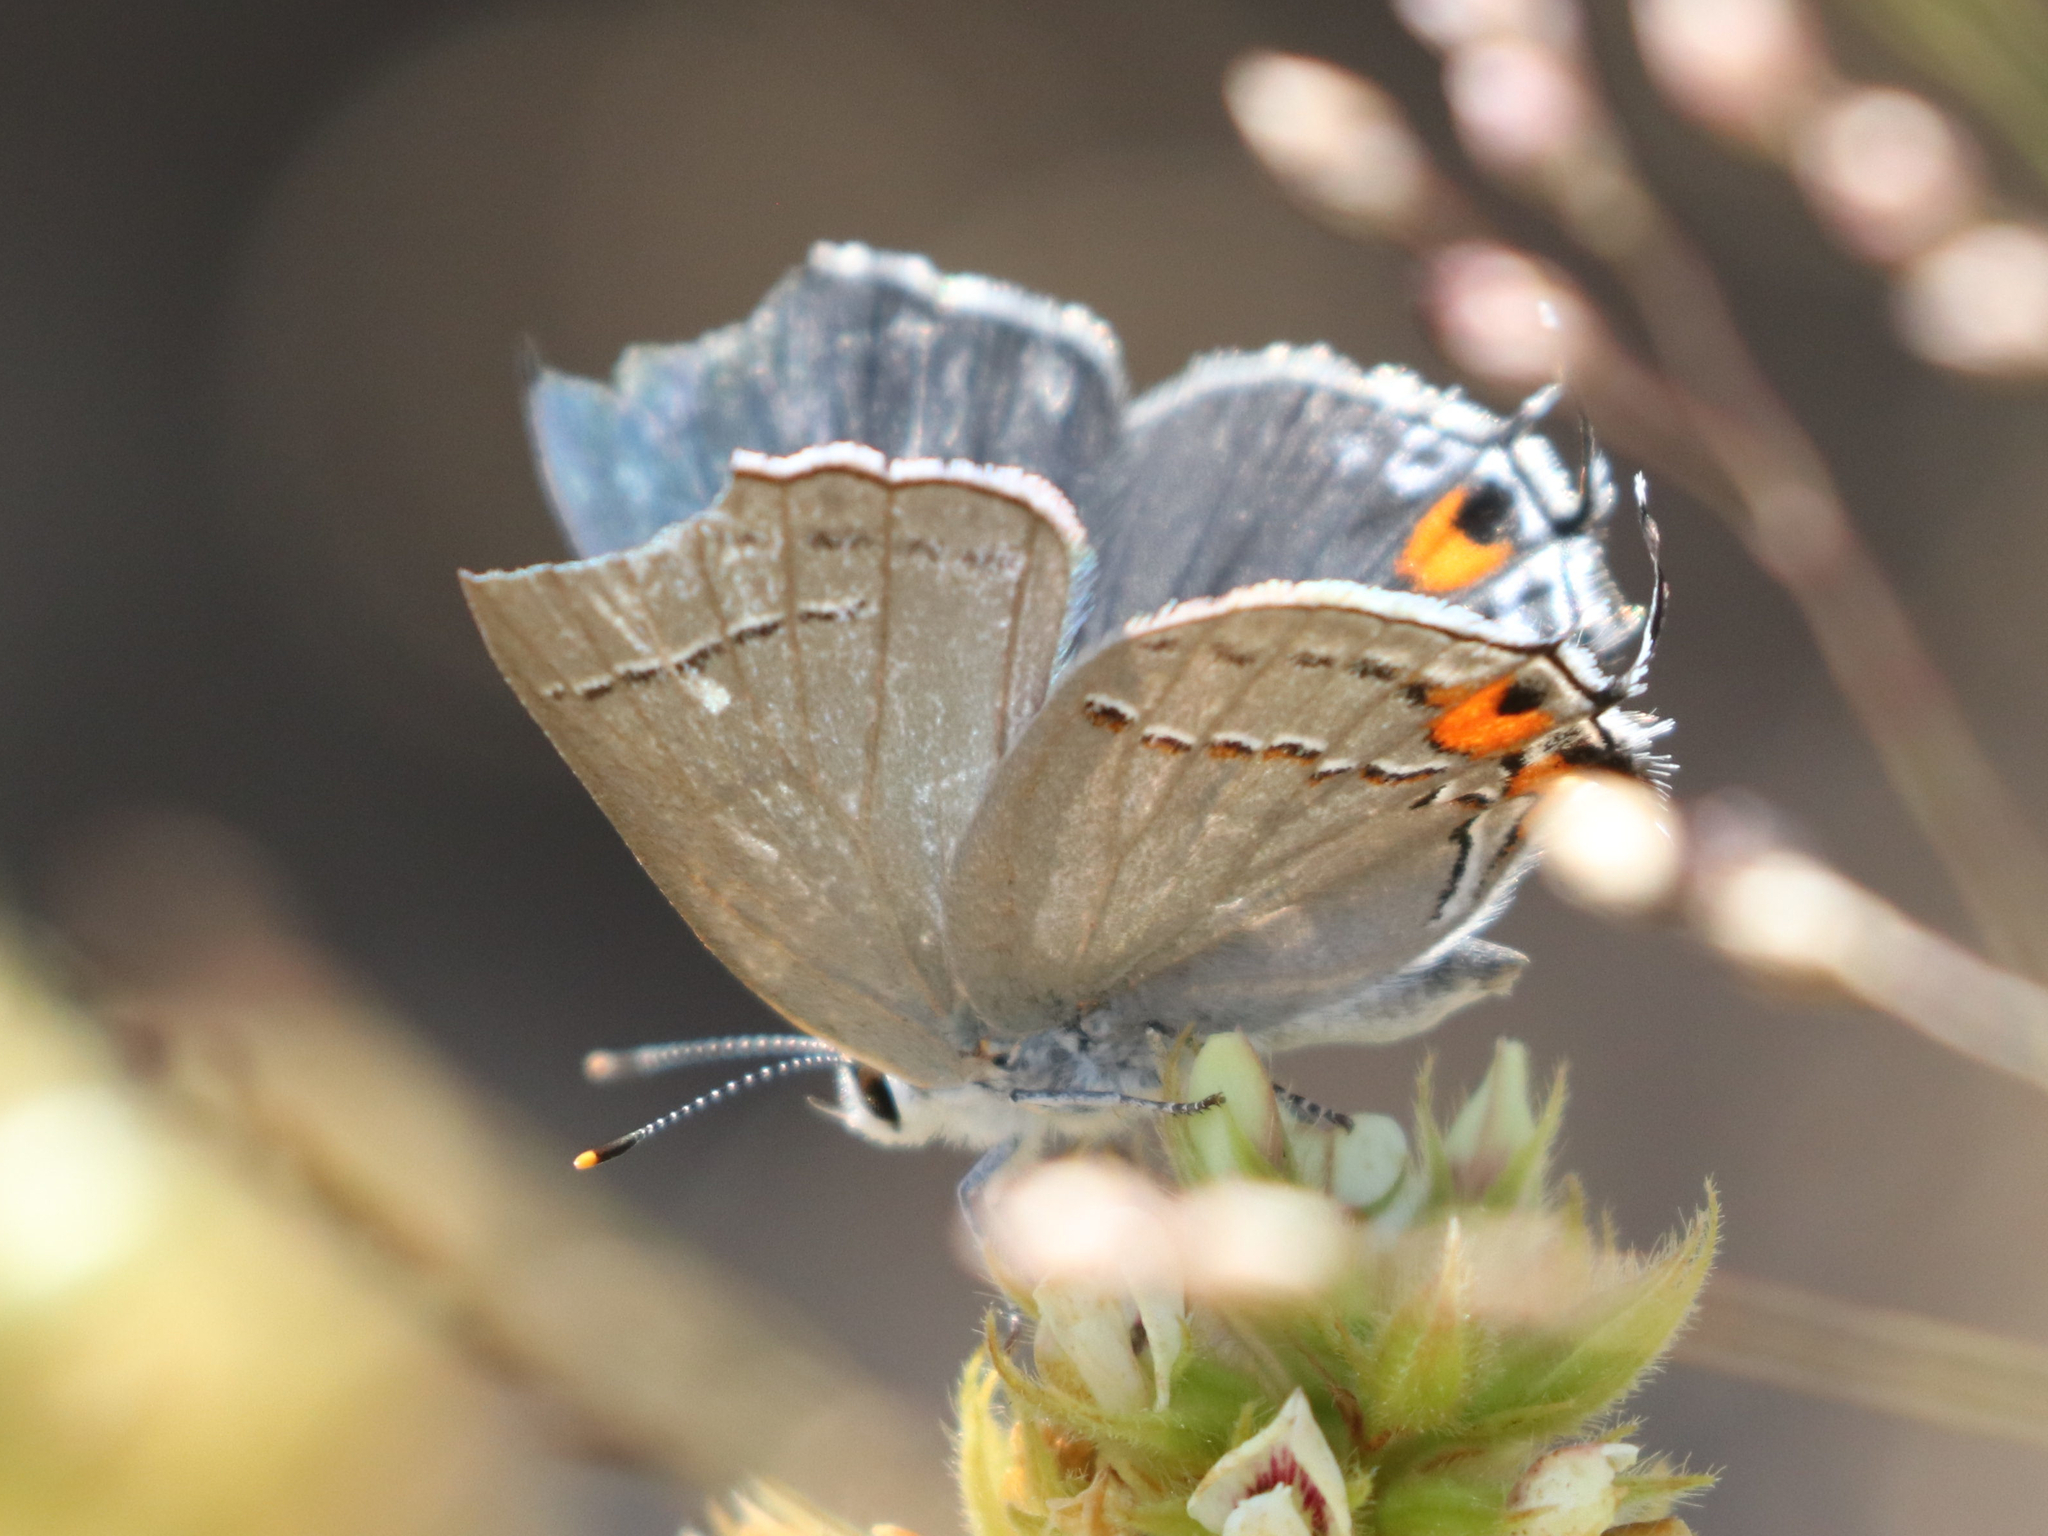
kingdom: Animalia
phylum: Arthropoda
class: Insecta
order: Lepidoptera
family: Lycaenidae
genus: Strymon
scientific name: Strymon melinus
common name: Gray hairstreak
